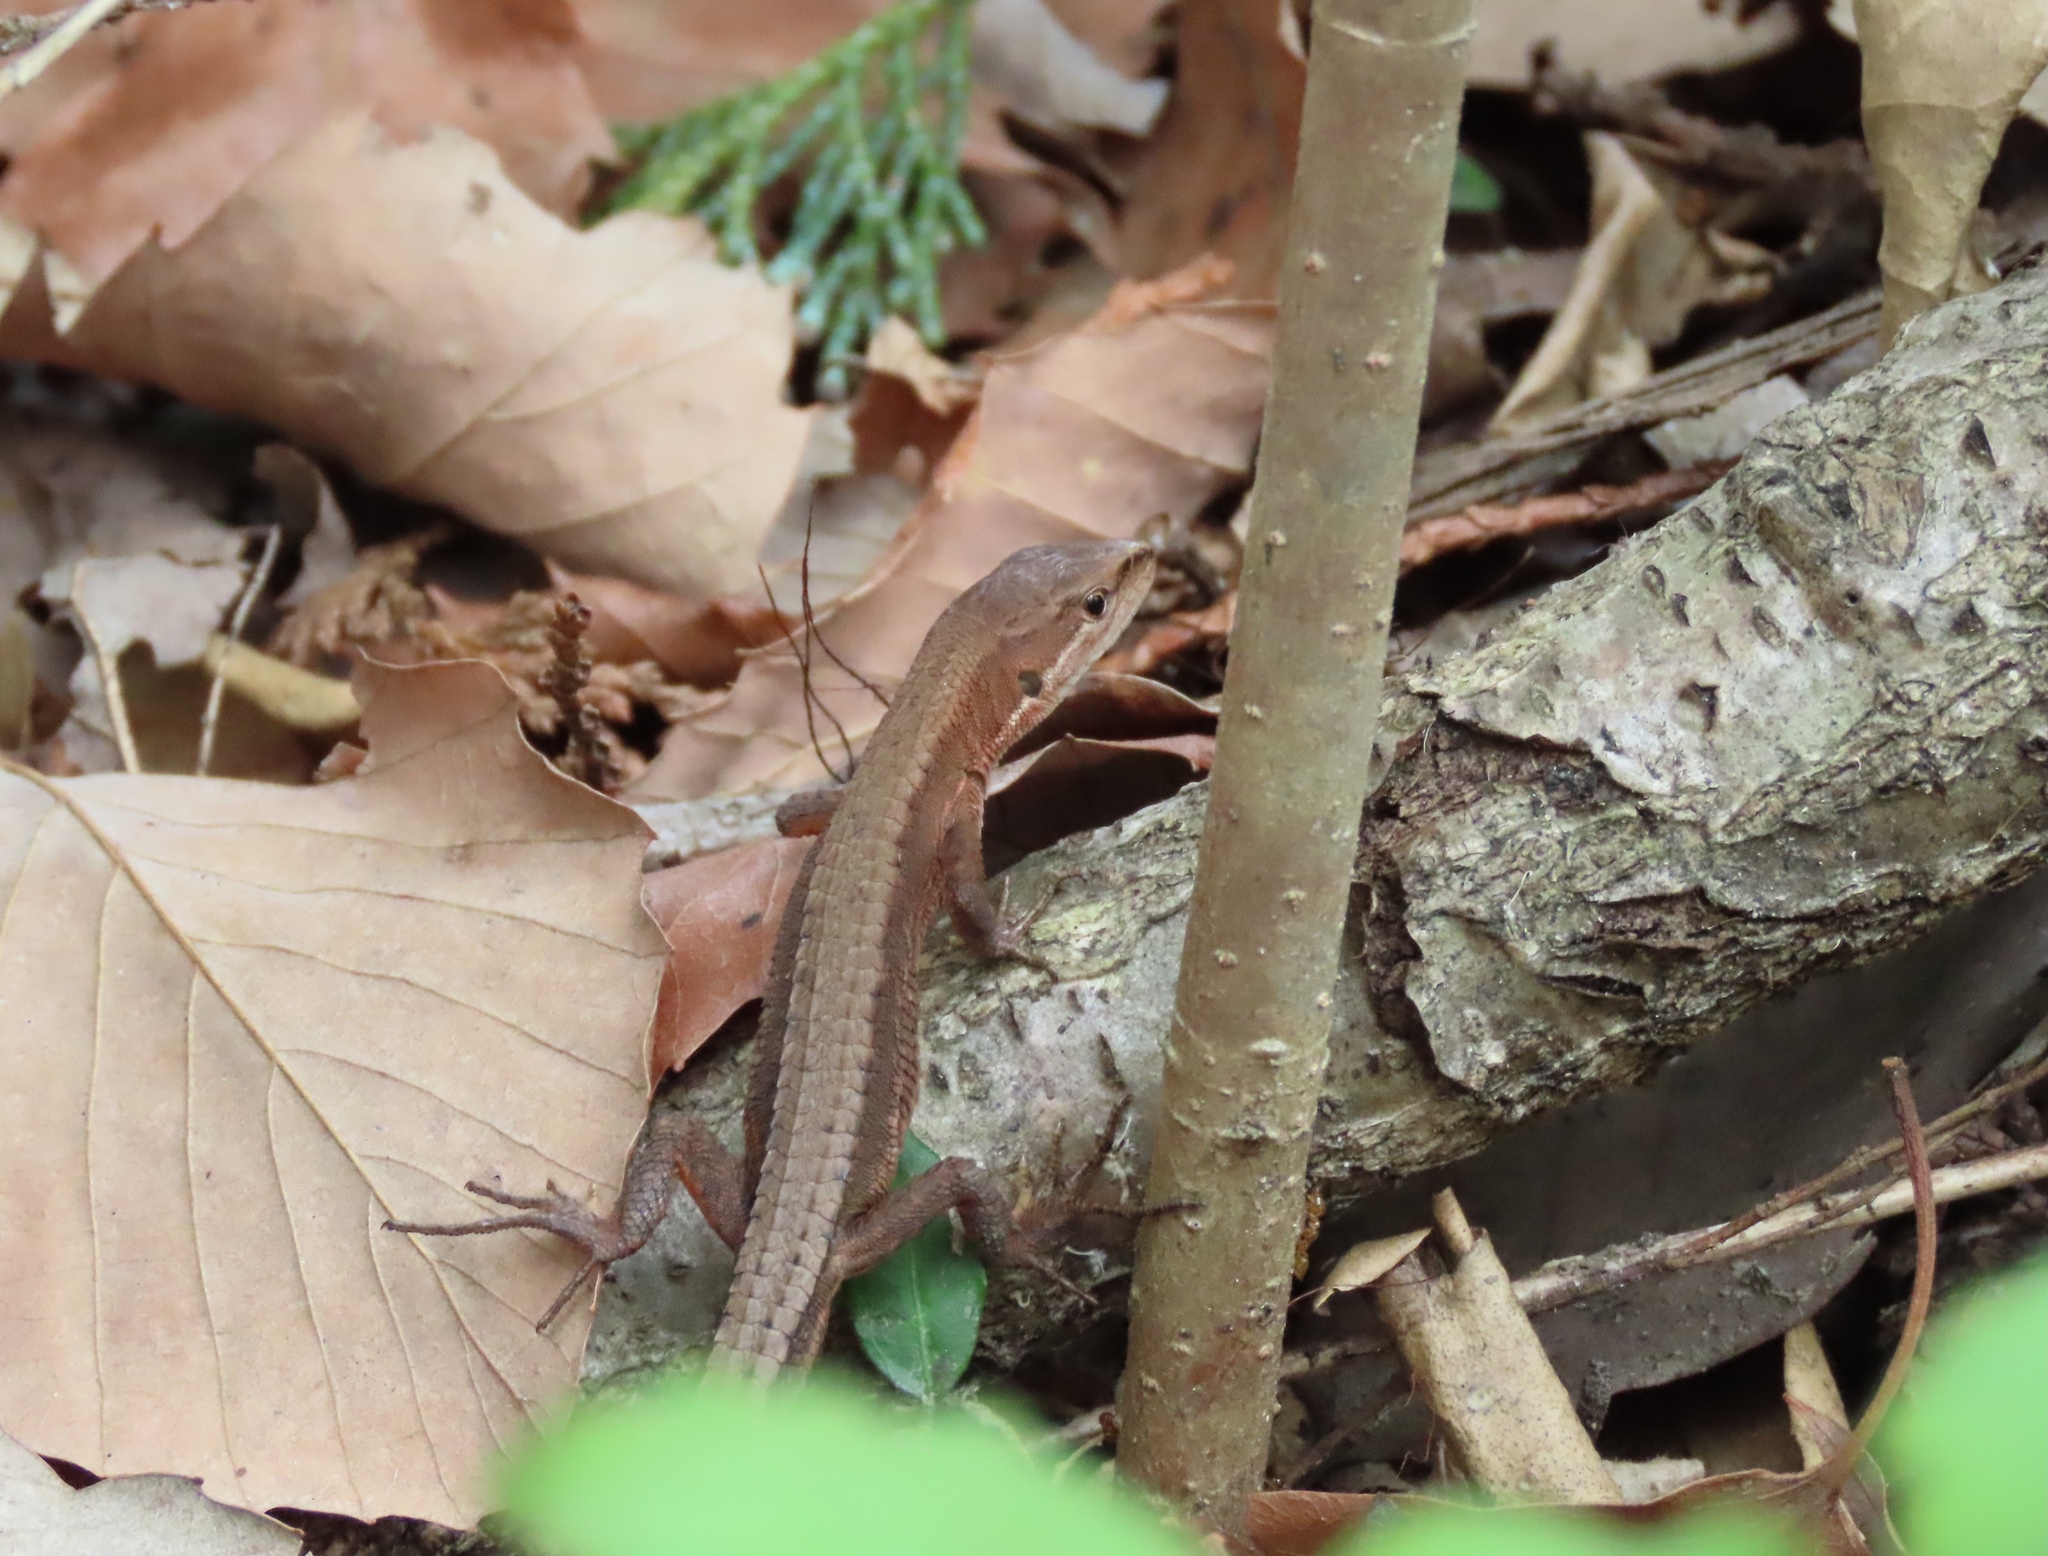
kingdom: Animalia
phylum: Chordata
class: Squamata
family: Lacertidae
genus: Takydromus
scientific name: Takydromus tachydromoides
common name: Japanese grass lizard
